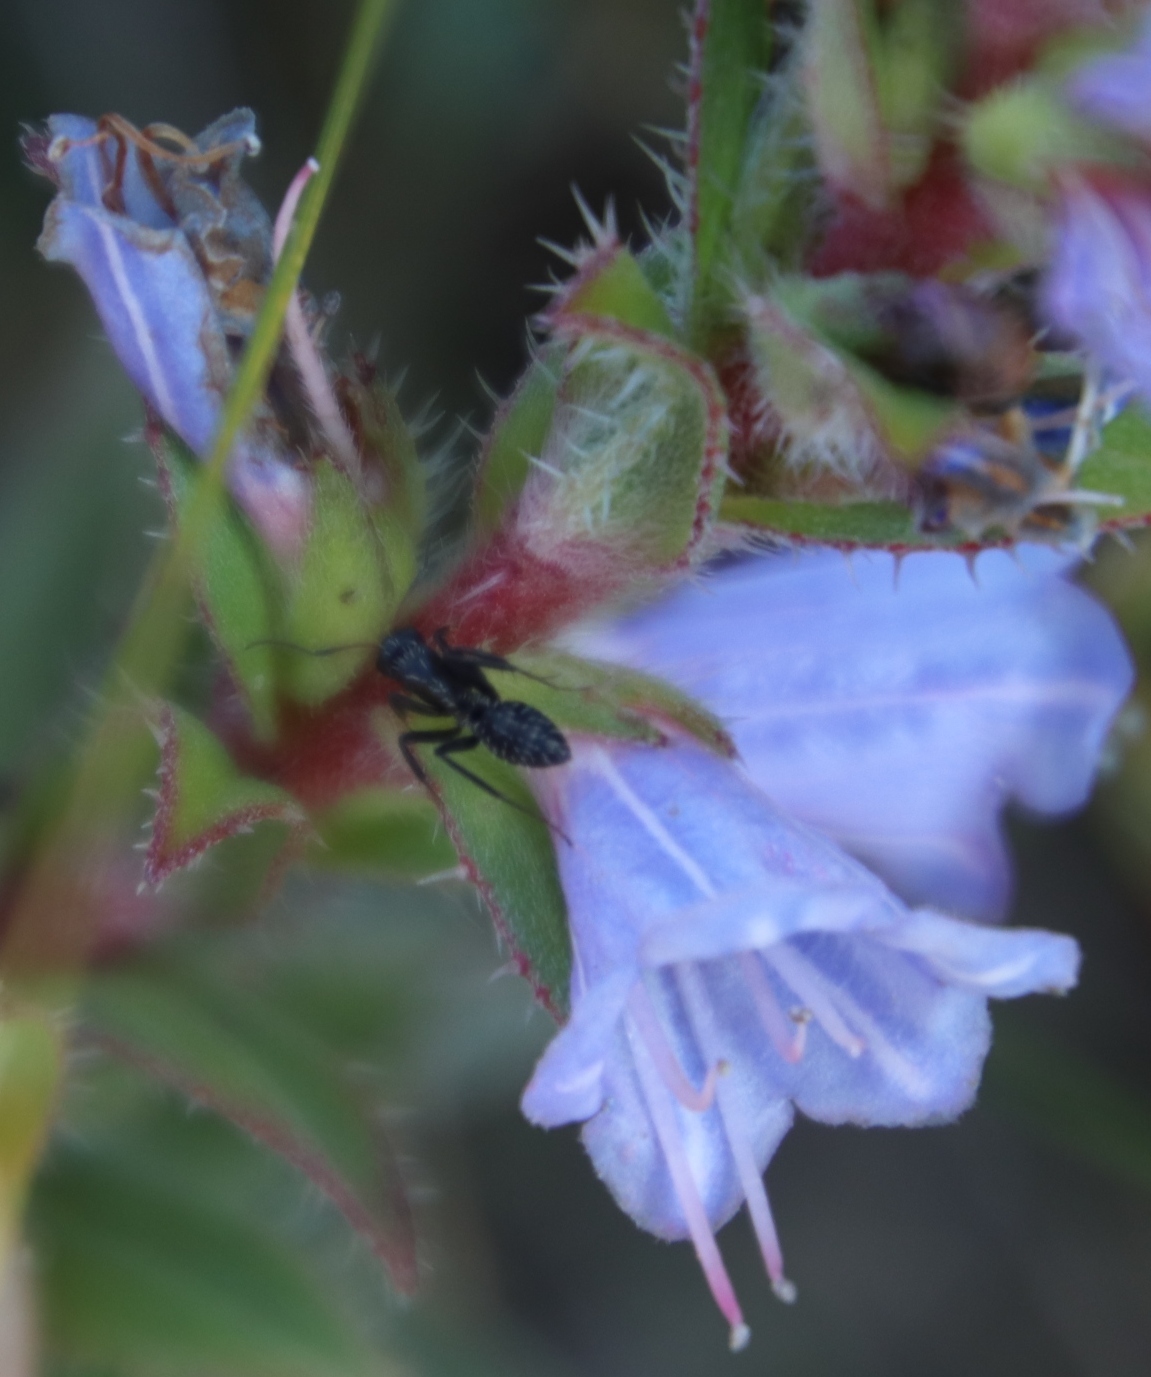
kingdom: Animalia
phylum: Arthropoda
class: Insecta
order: Hymenoptera
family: Formicidae
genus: Camponotus
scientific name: Camponotus niveosetosus
